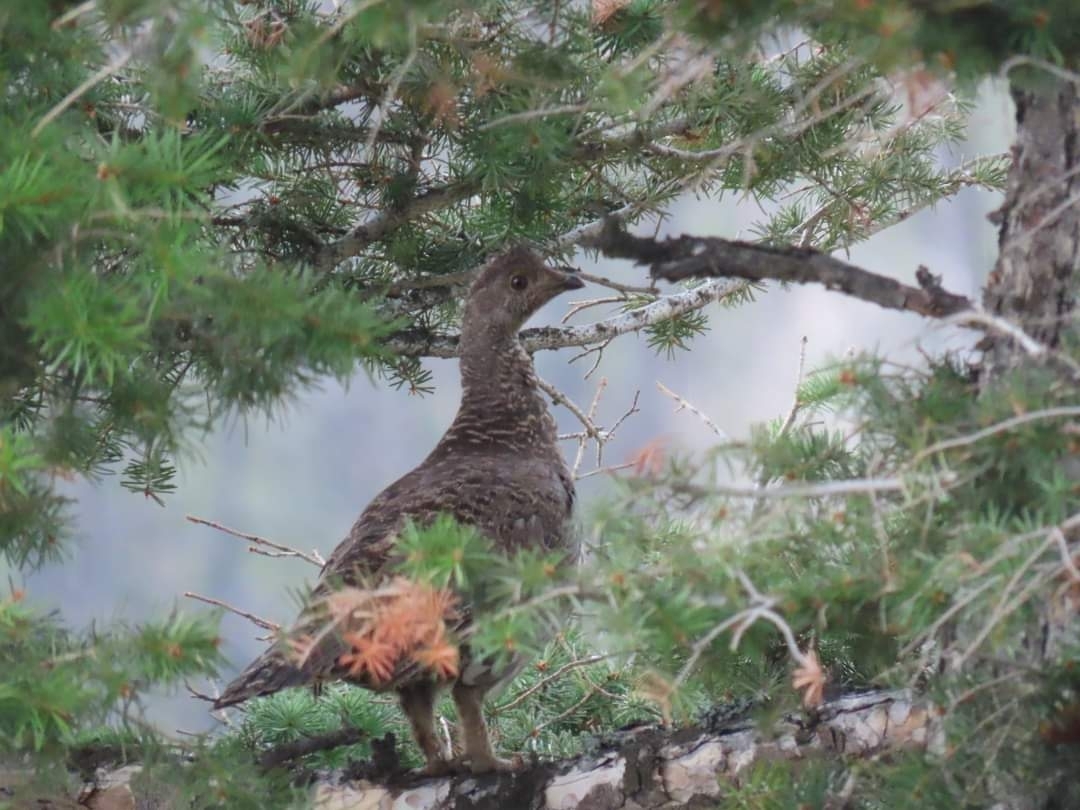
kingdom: Animalia
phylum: Chordata
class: Aves
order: Galliformes
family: Phasianidae
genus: Dendragapus
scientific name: Dendragapus obscurus
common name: Dusky grouse
